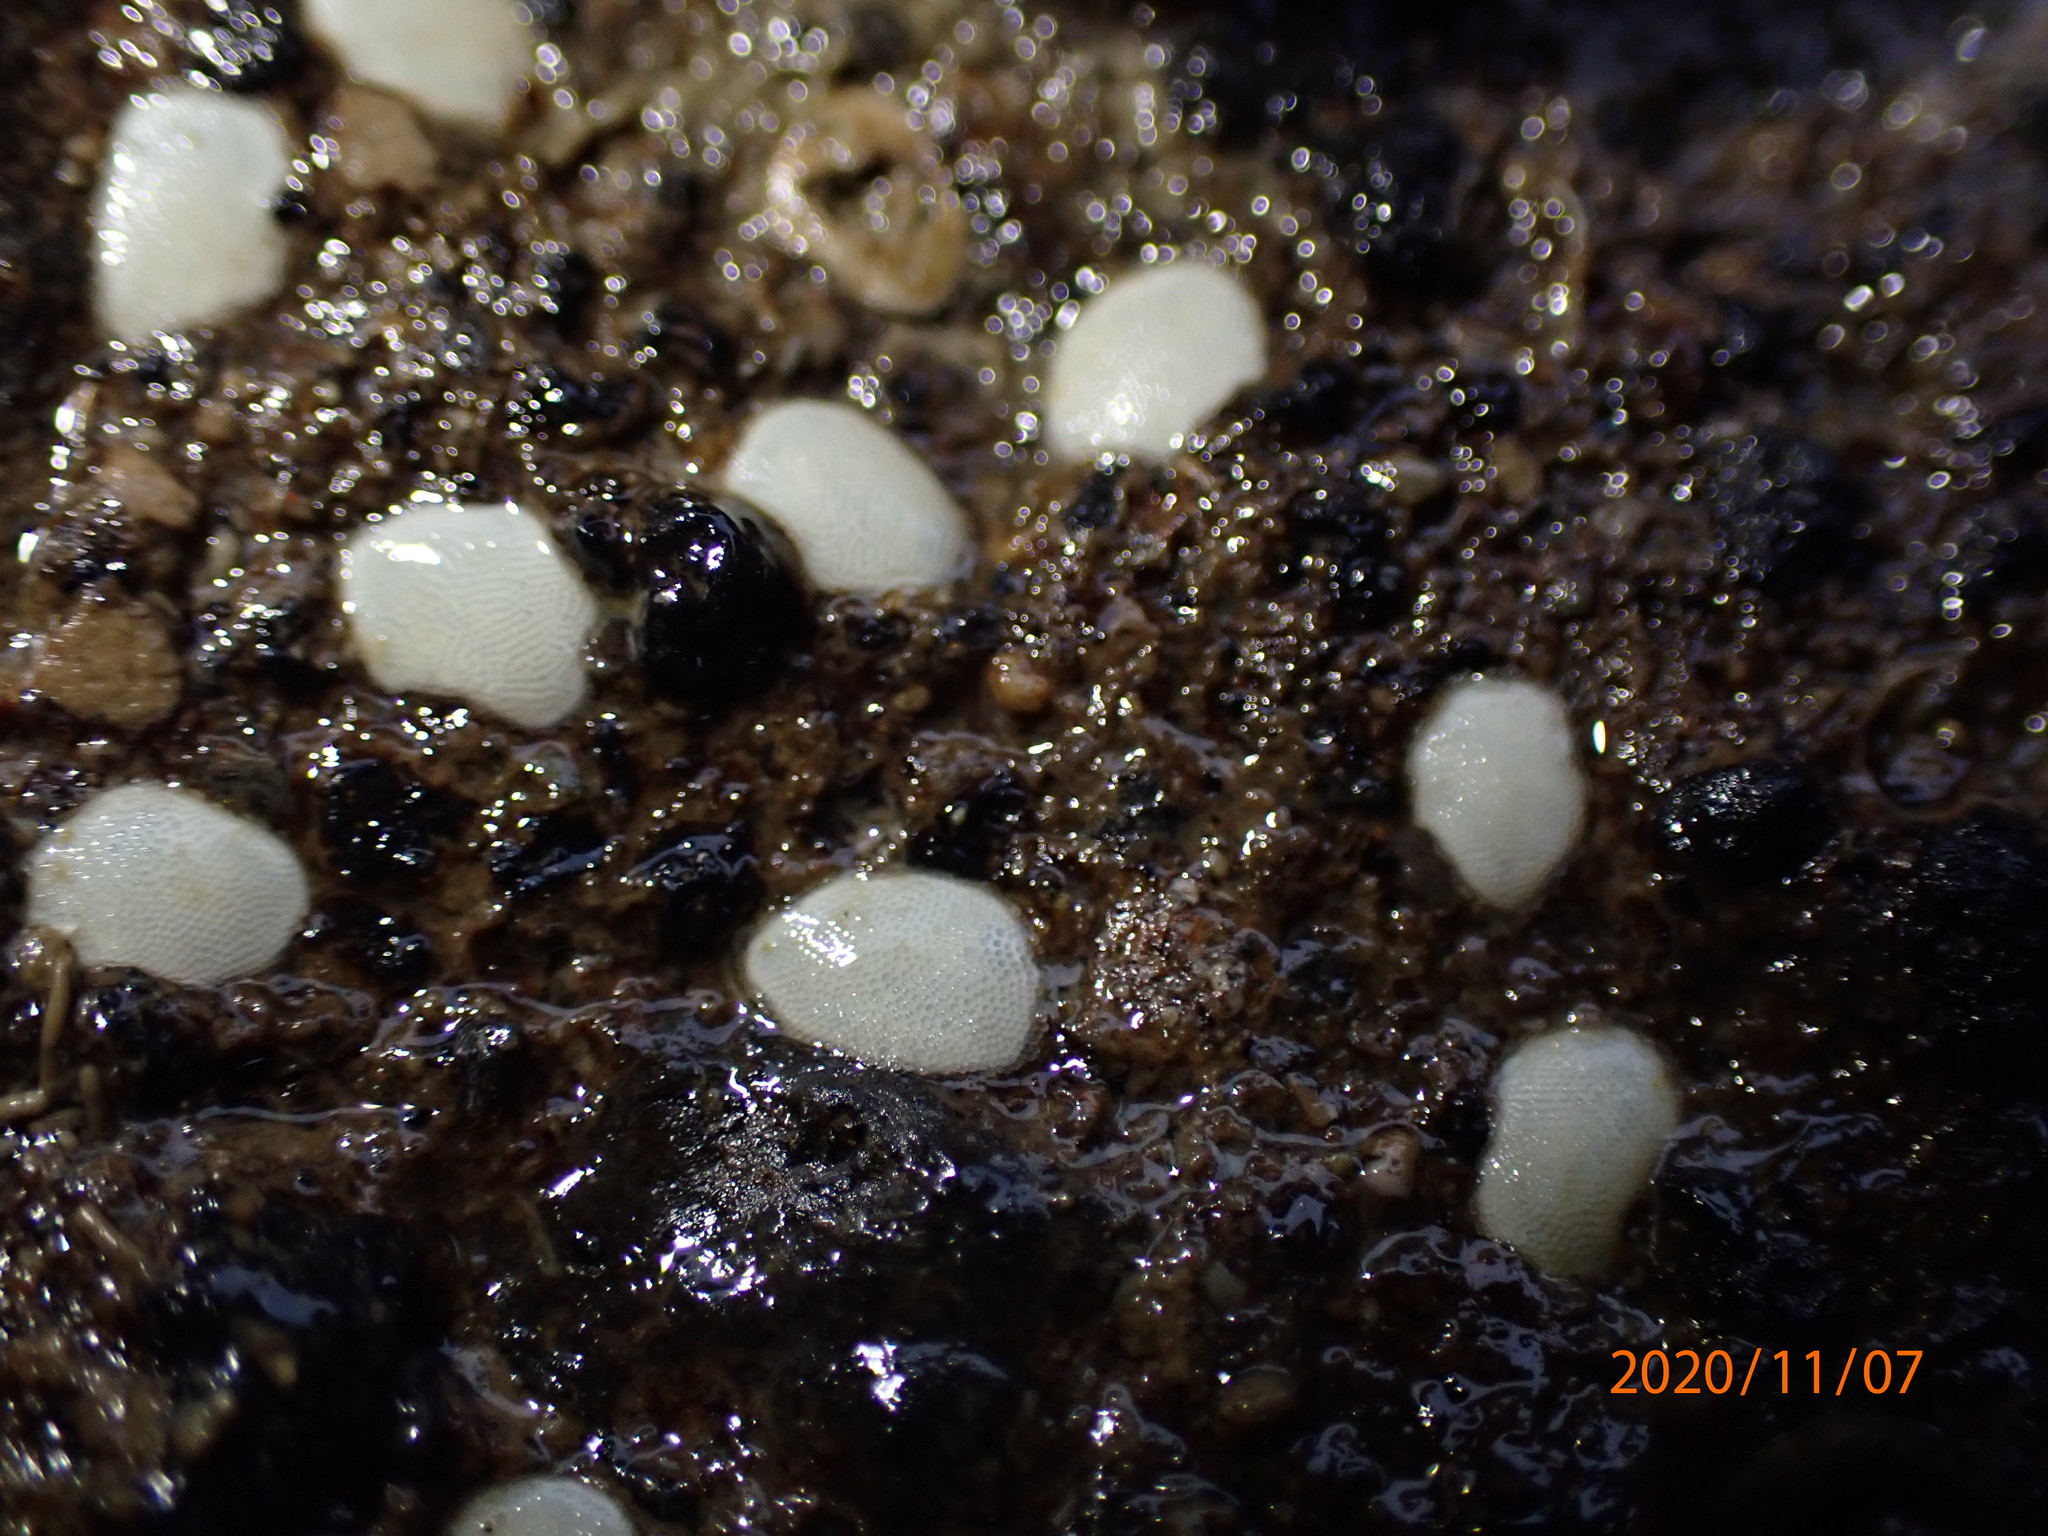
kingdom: Animalia
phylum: Mollusca
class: Gastropoda
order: Cycloneritida
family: Neritidae
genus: Nerita
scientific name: Nerita melanotragus
